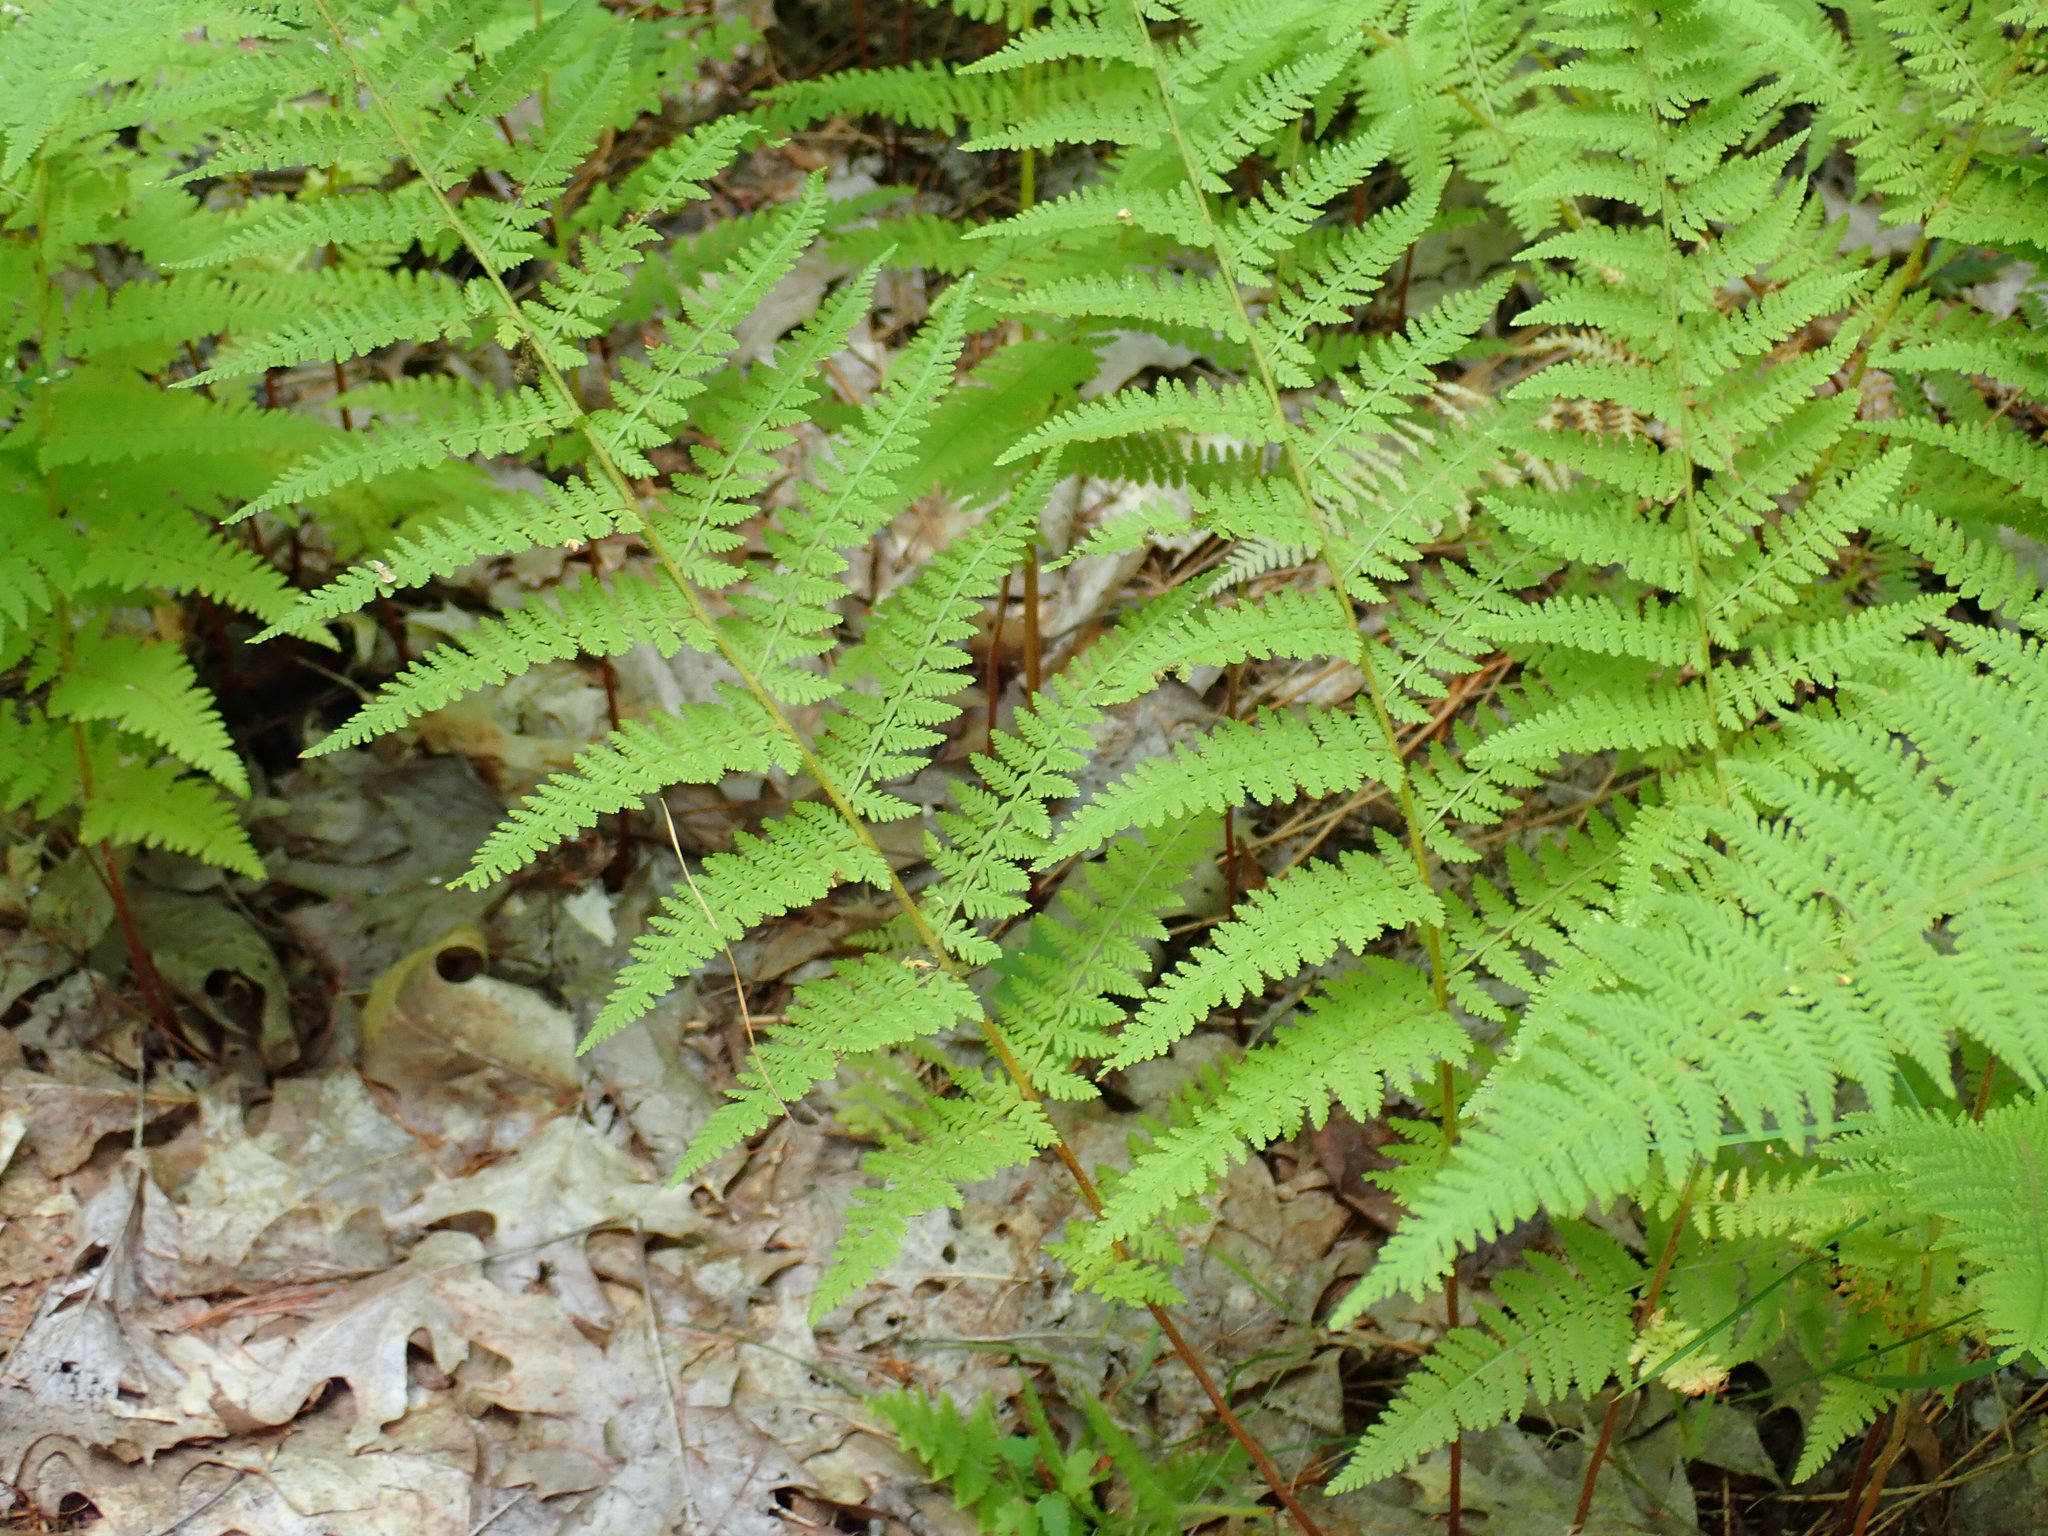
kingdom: Plantae
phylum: Tracheophyta
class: Polypodiopsida
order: Polypodiales
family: Dennstaedtiaceae
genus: Sitobolium
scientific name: Sitobolium punctilobum
